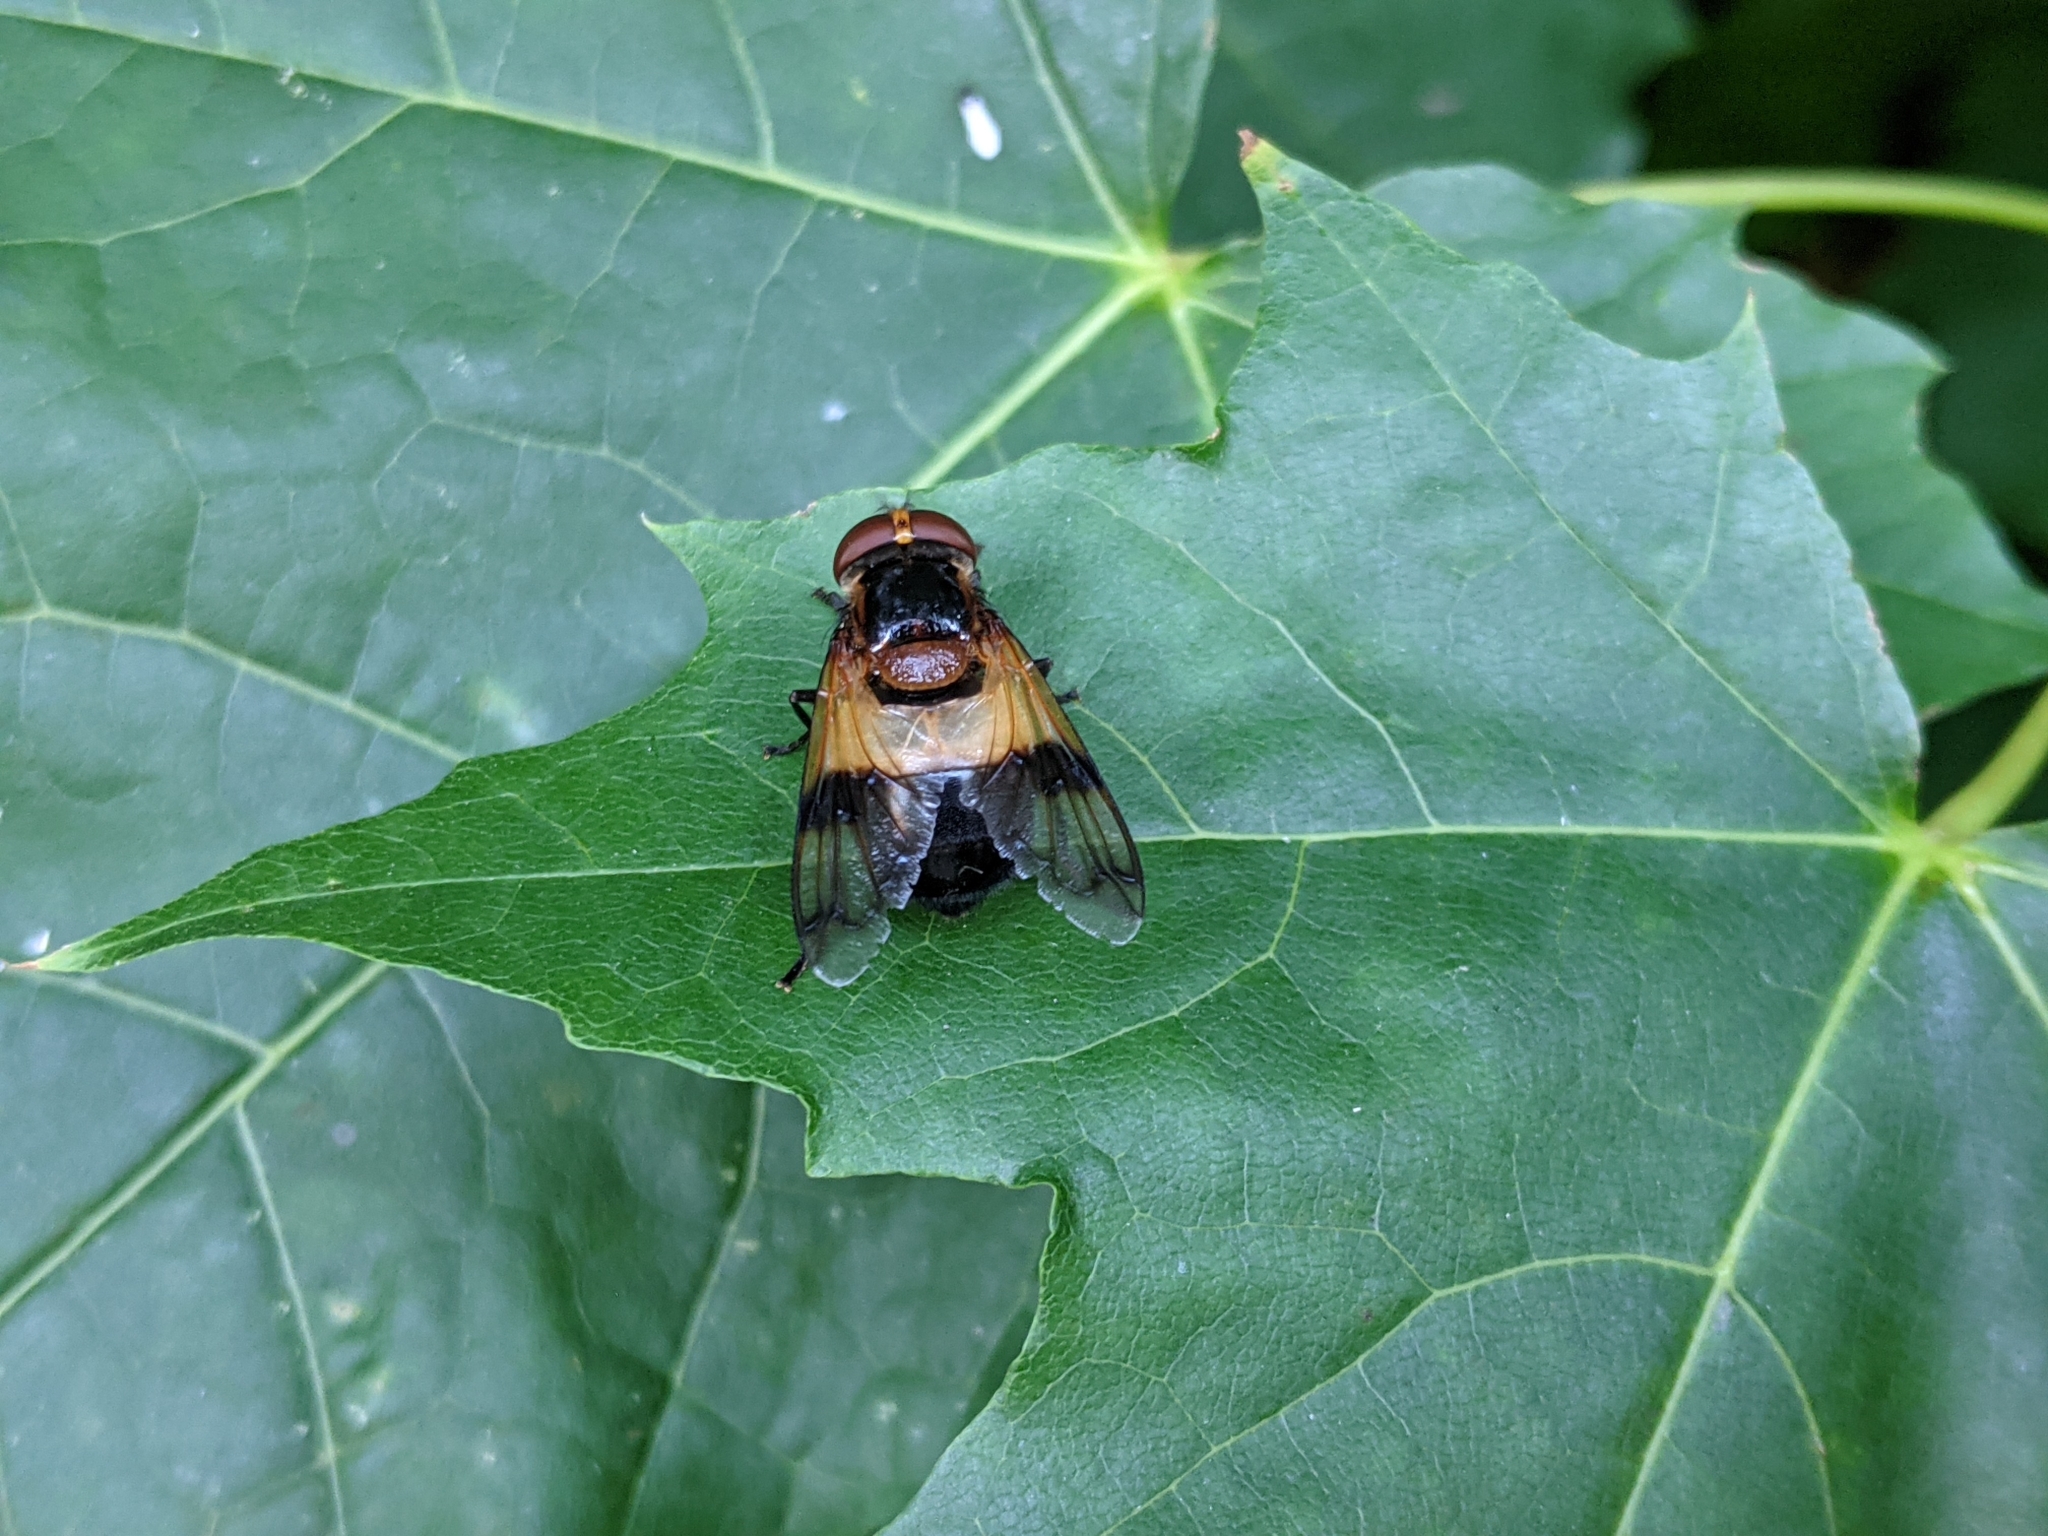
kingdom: Animalia
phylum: Arthropoda
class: Insecta
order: Diptera
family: Syrphidae
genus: Volucella
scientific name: Volucella pellucens
